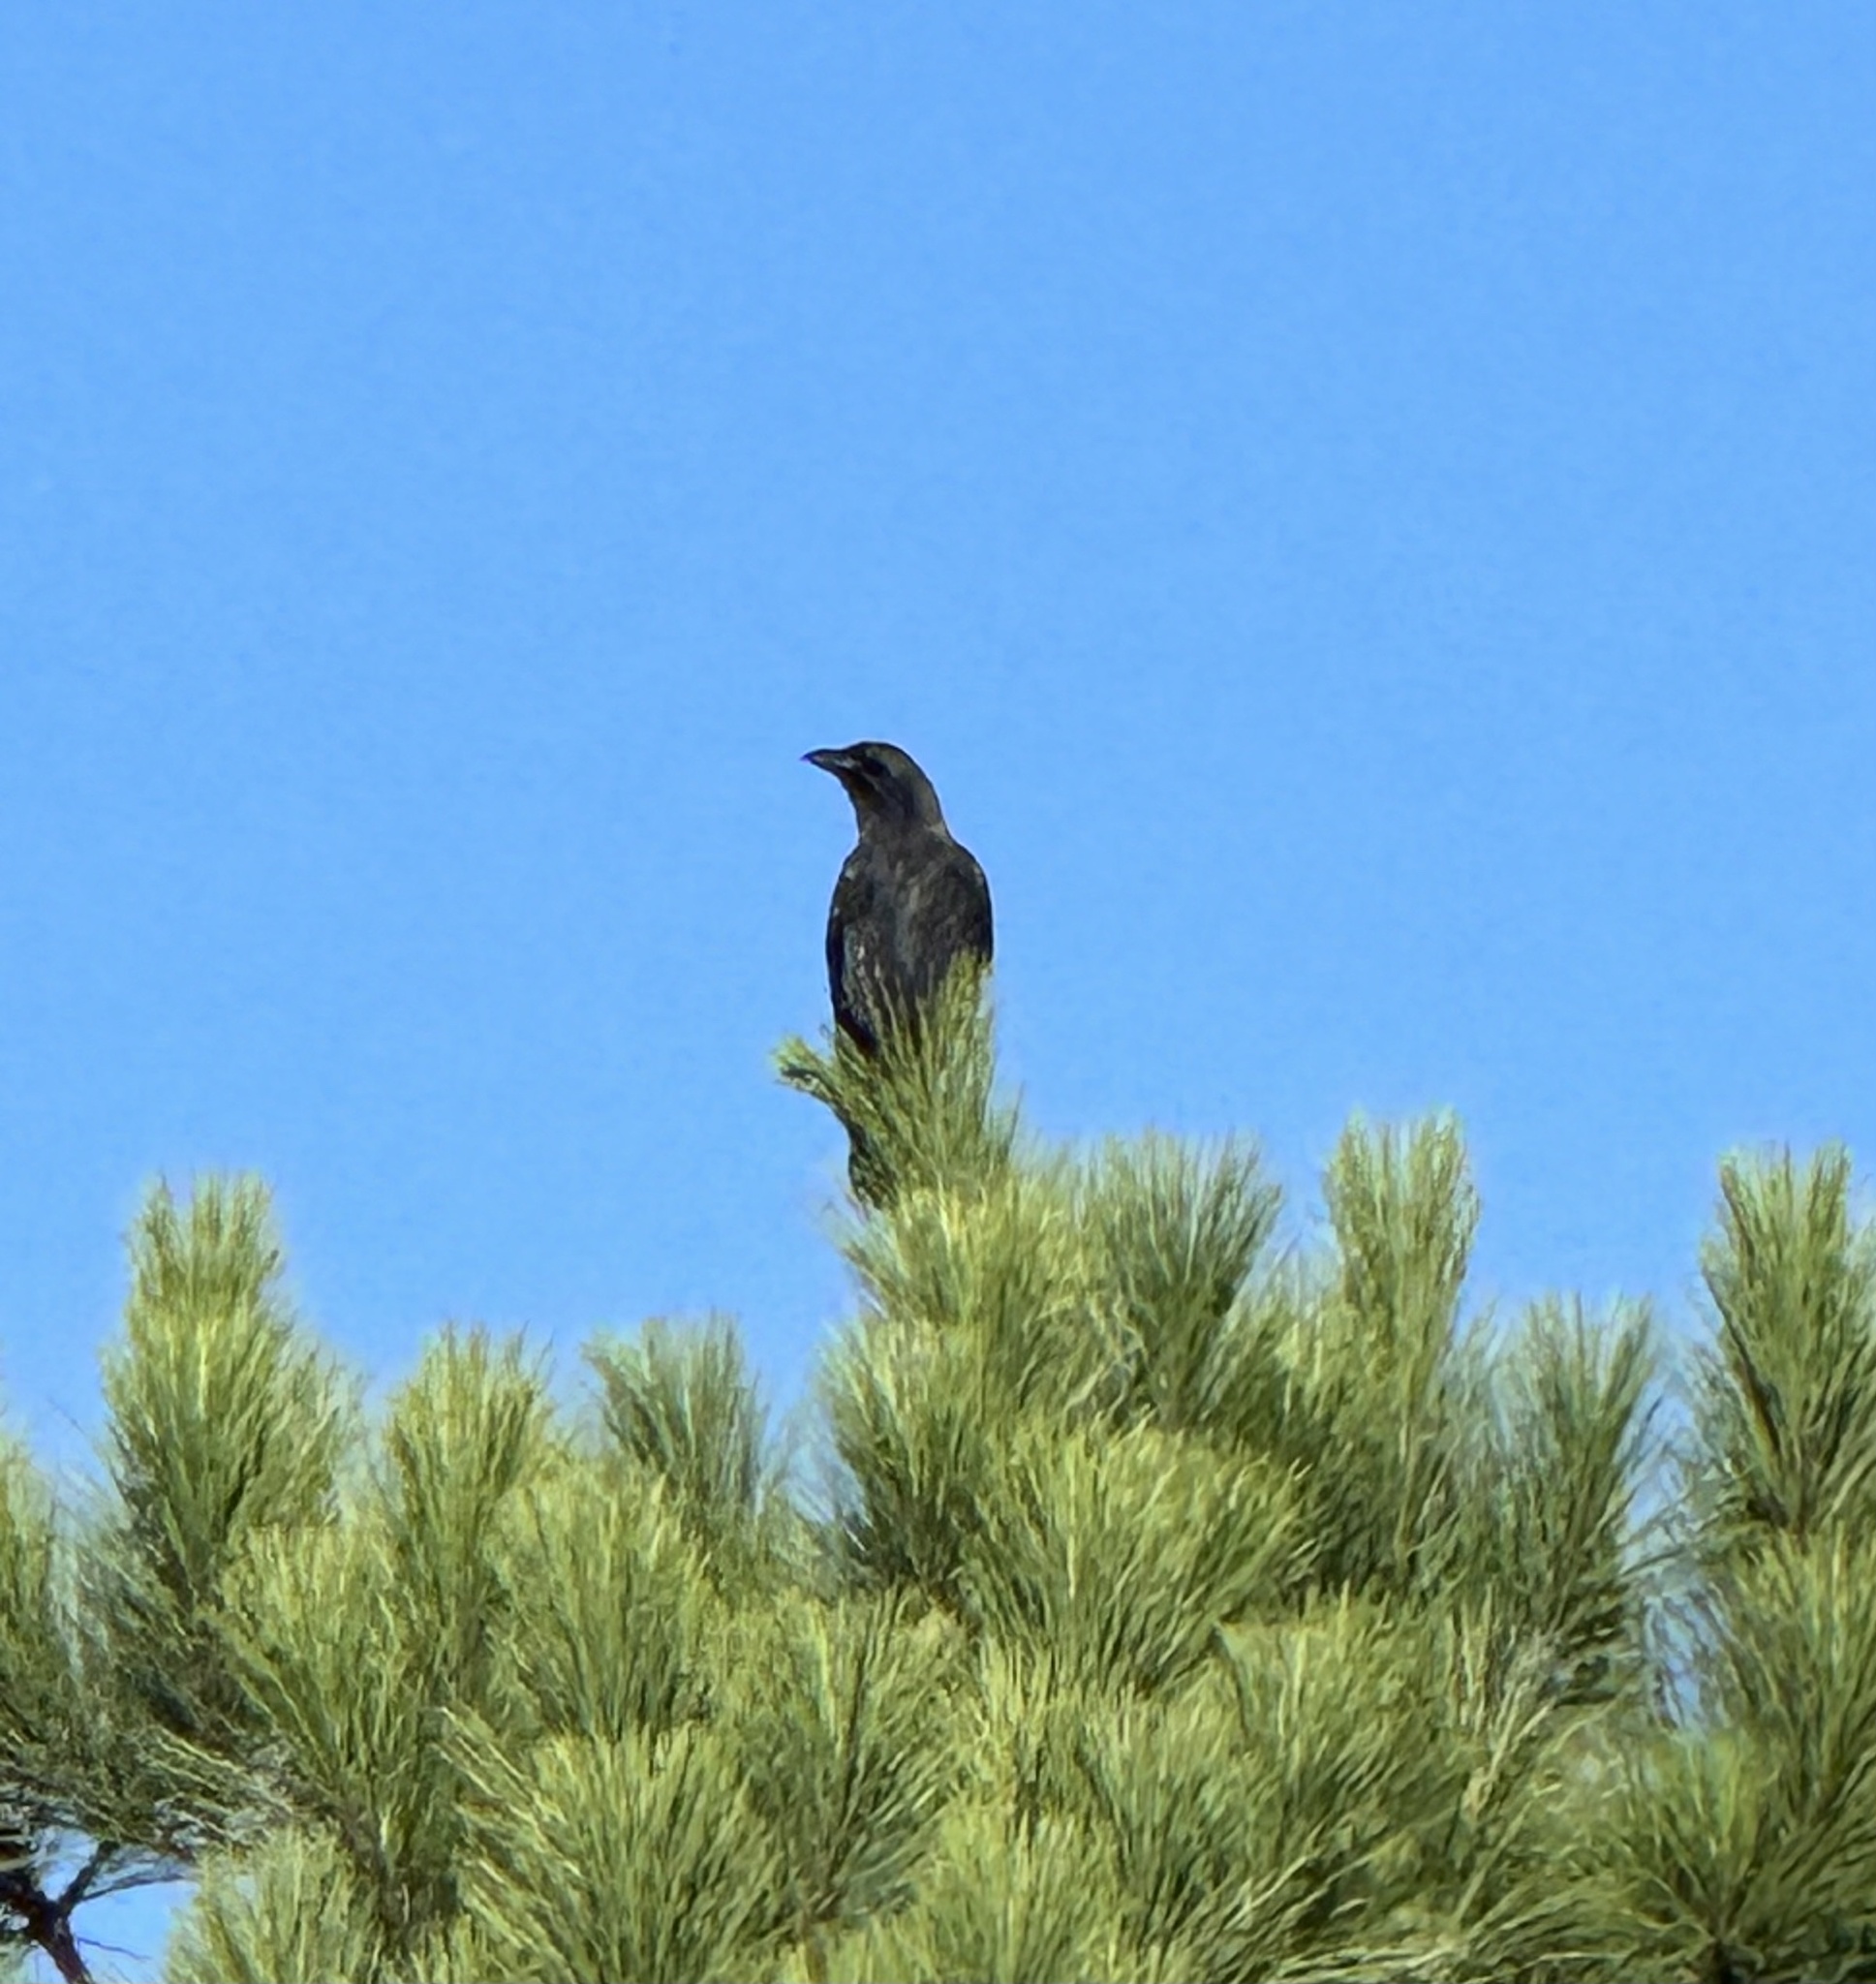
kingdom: Animalia
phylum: Chordata
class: Aves
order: Passeriformes
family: Corvidae
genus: Corvus
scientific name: Corvus brachyrhynchos
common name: American crow
